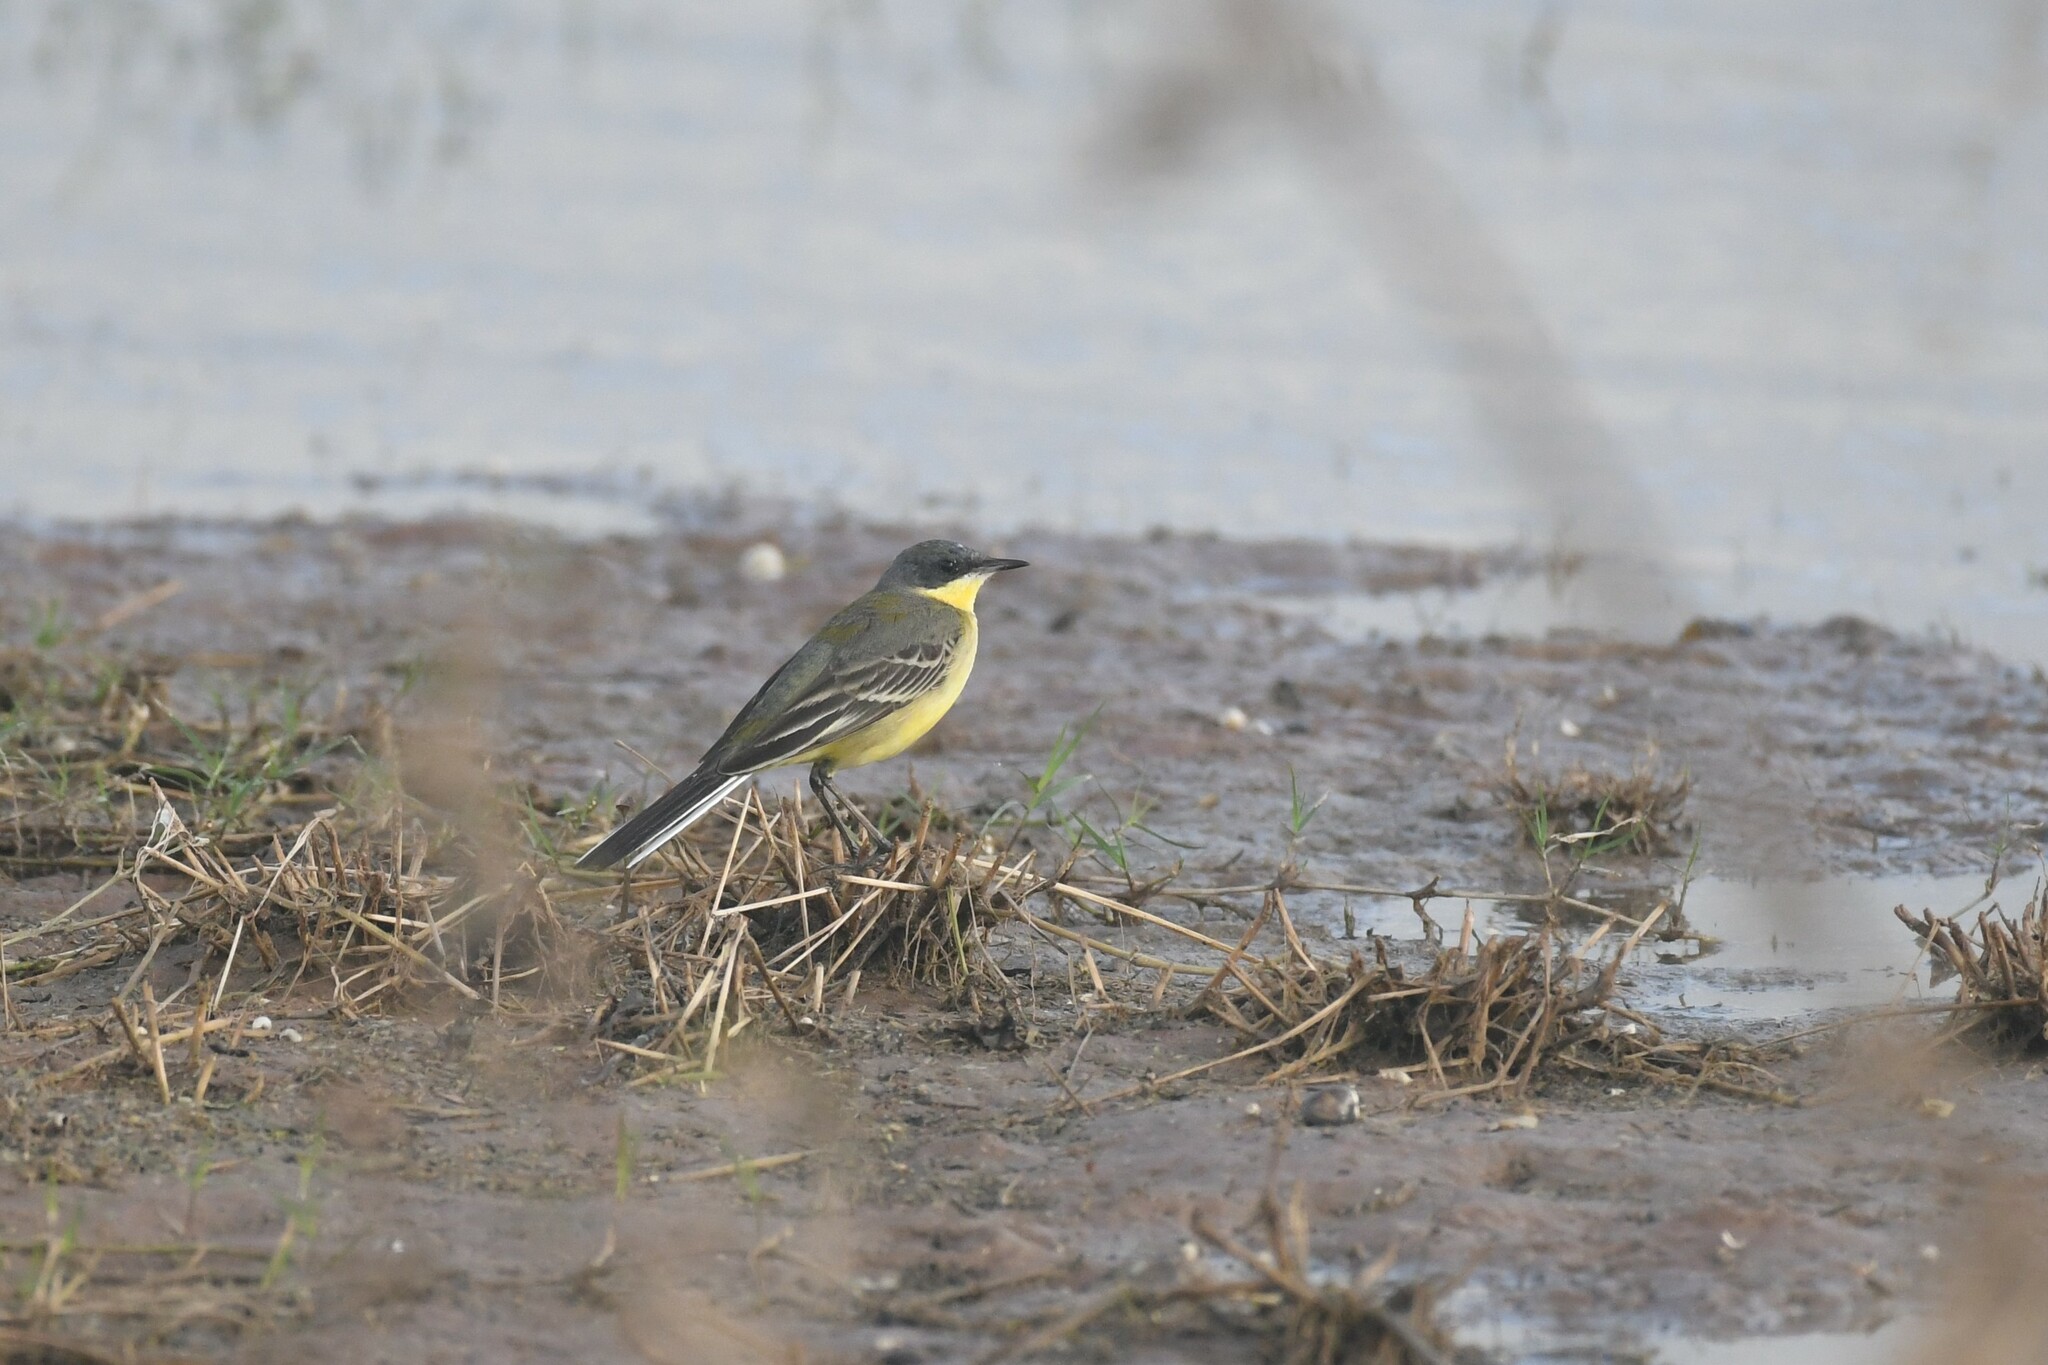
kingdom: Animalia
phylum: Chordata
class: Aves
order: Passeriformes
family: Motacillidae
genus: Motacilla
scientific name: Motacilla tschutschensis
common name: Eastern yellow wagtail
